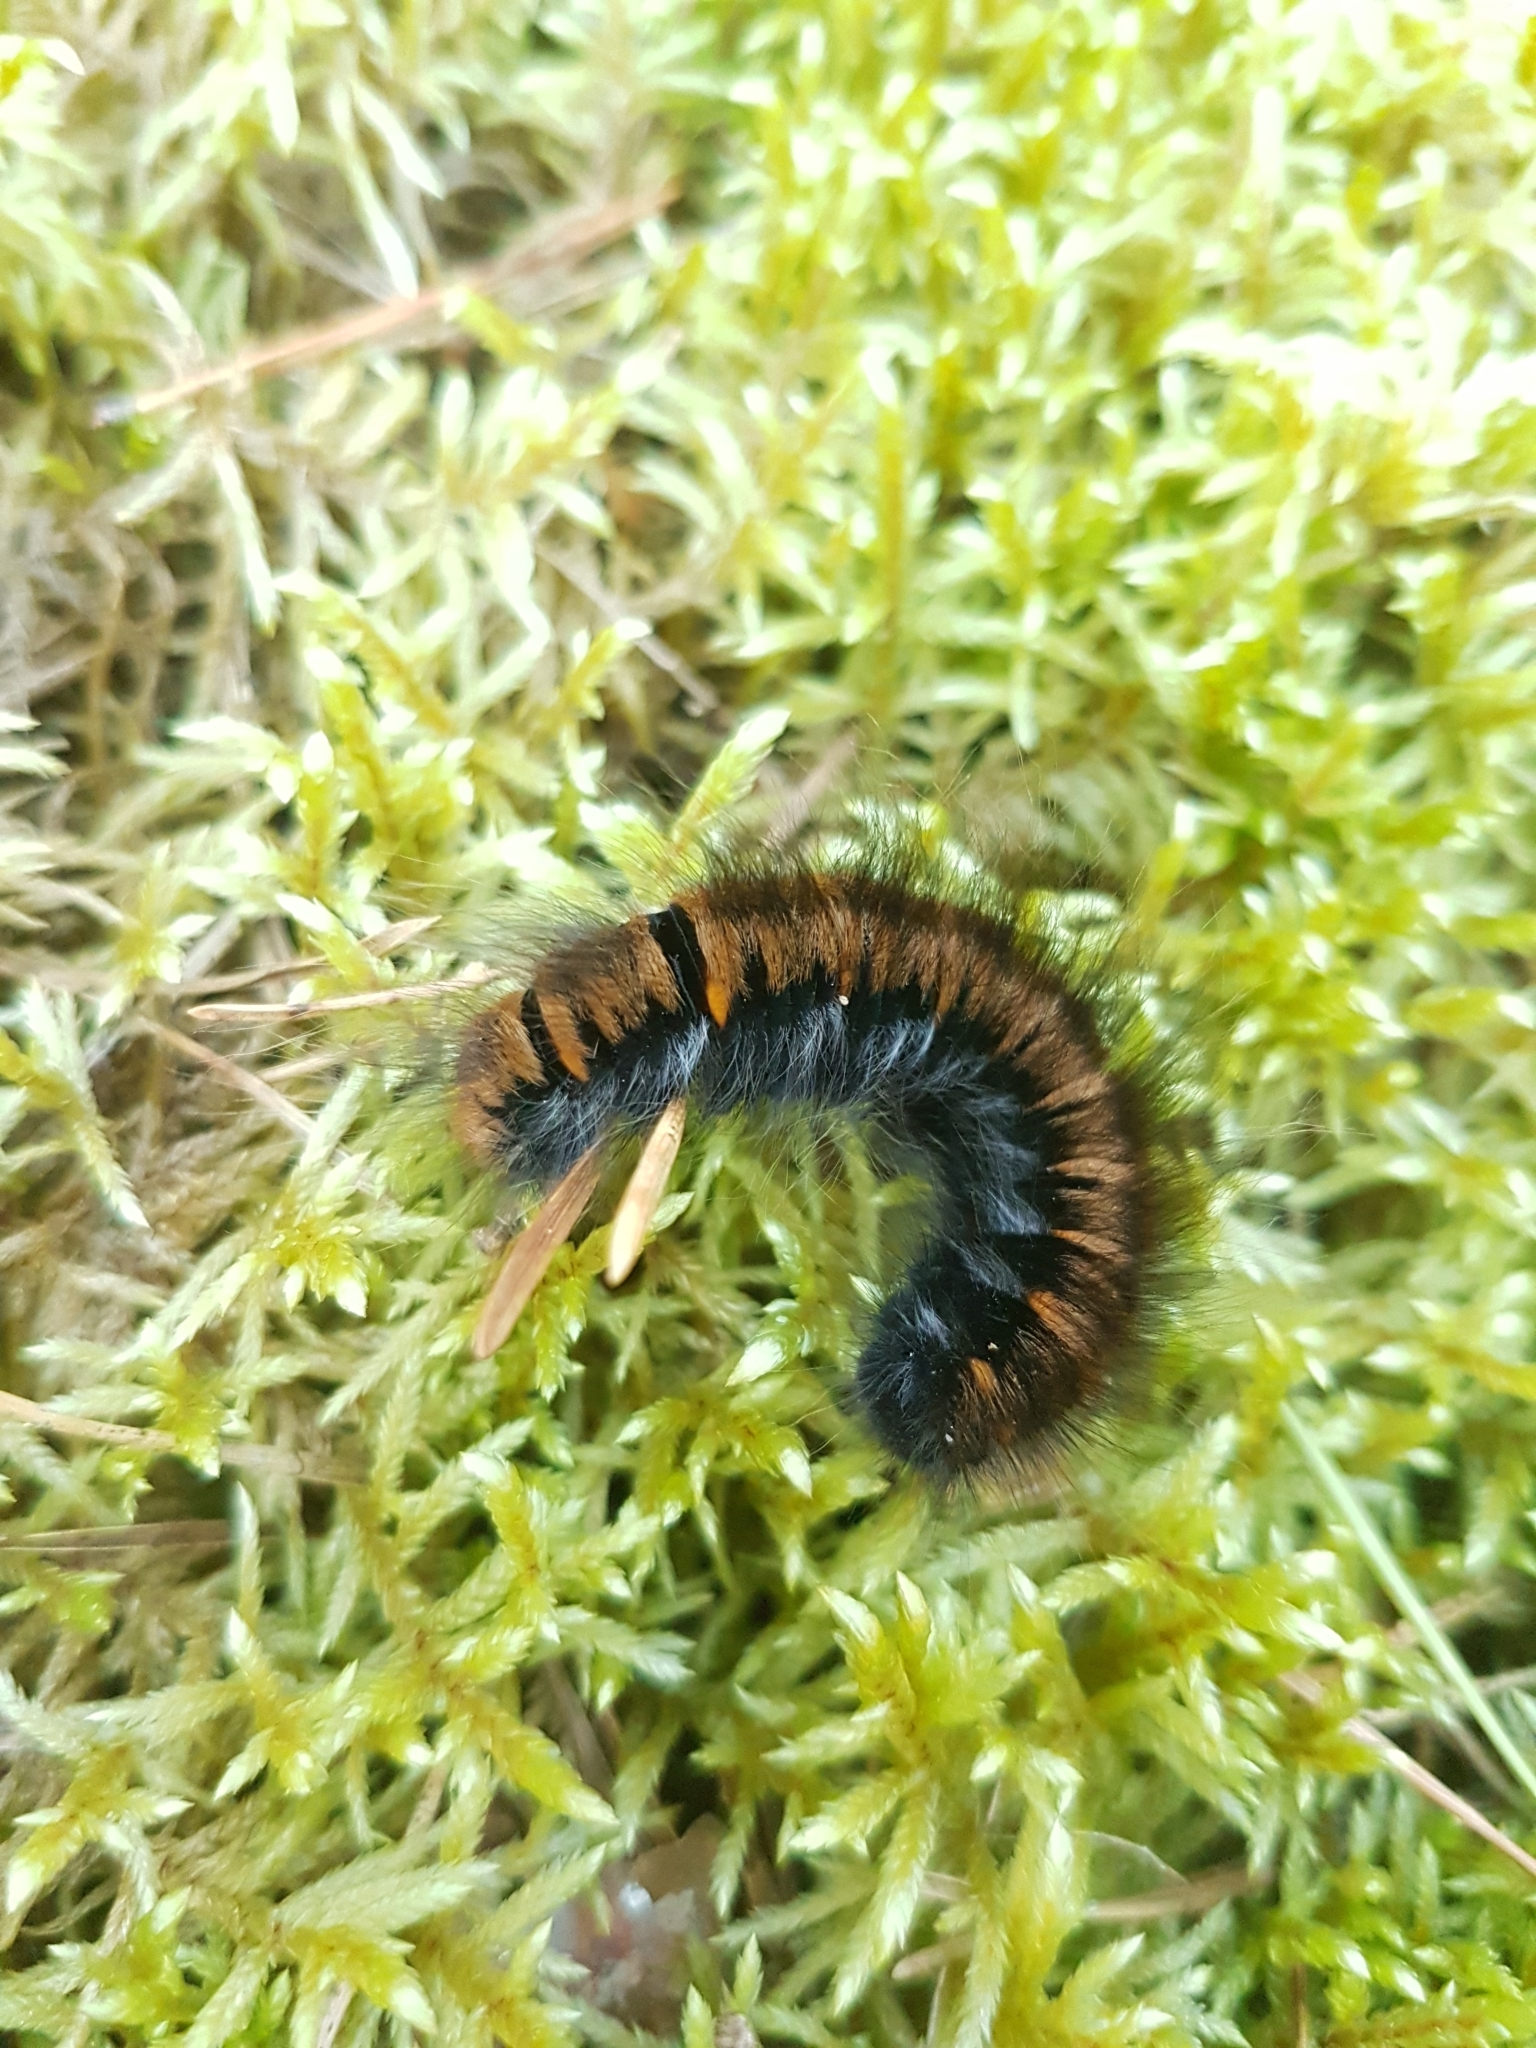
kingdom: Animalia
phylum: Arthropoda
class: Insecta
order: Lepidoptera
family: Lasiocampidae
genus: Macrothylacia
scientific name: Macrothylacia rubi
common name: Fox moth
